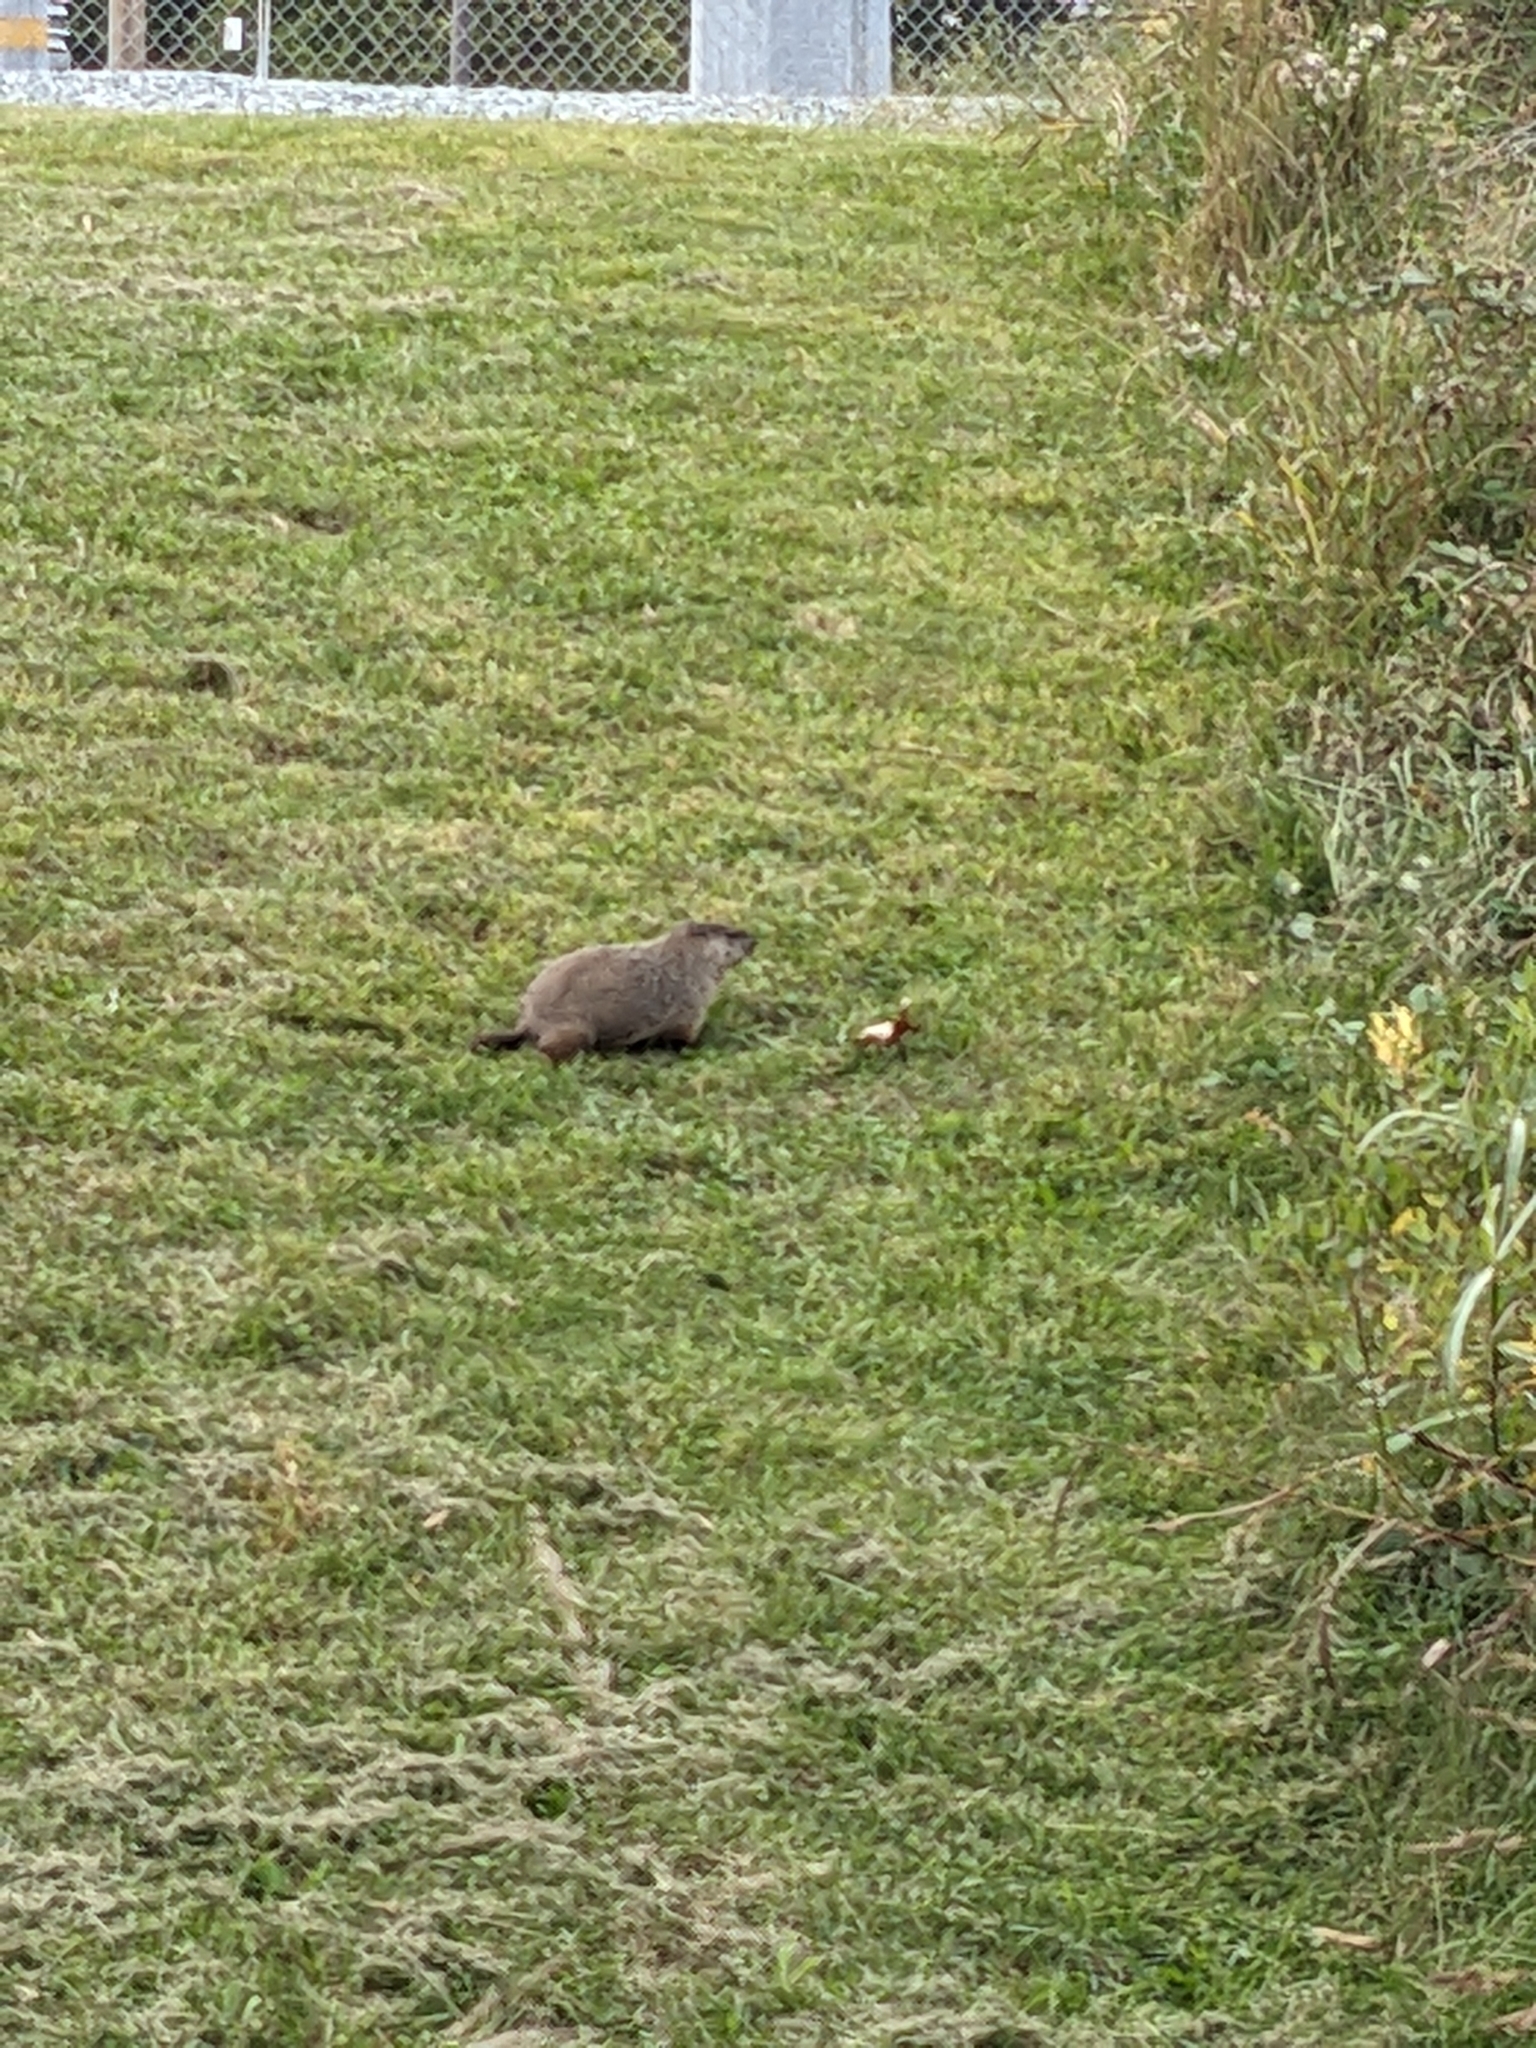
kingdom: Animalia
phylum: Chordata
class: Mammalia
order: Rodentia
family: Sciuridae
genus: Marmota
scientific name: Marmota monax
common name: Groundhog
